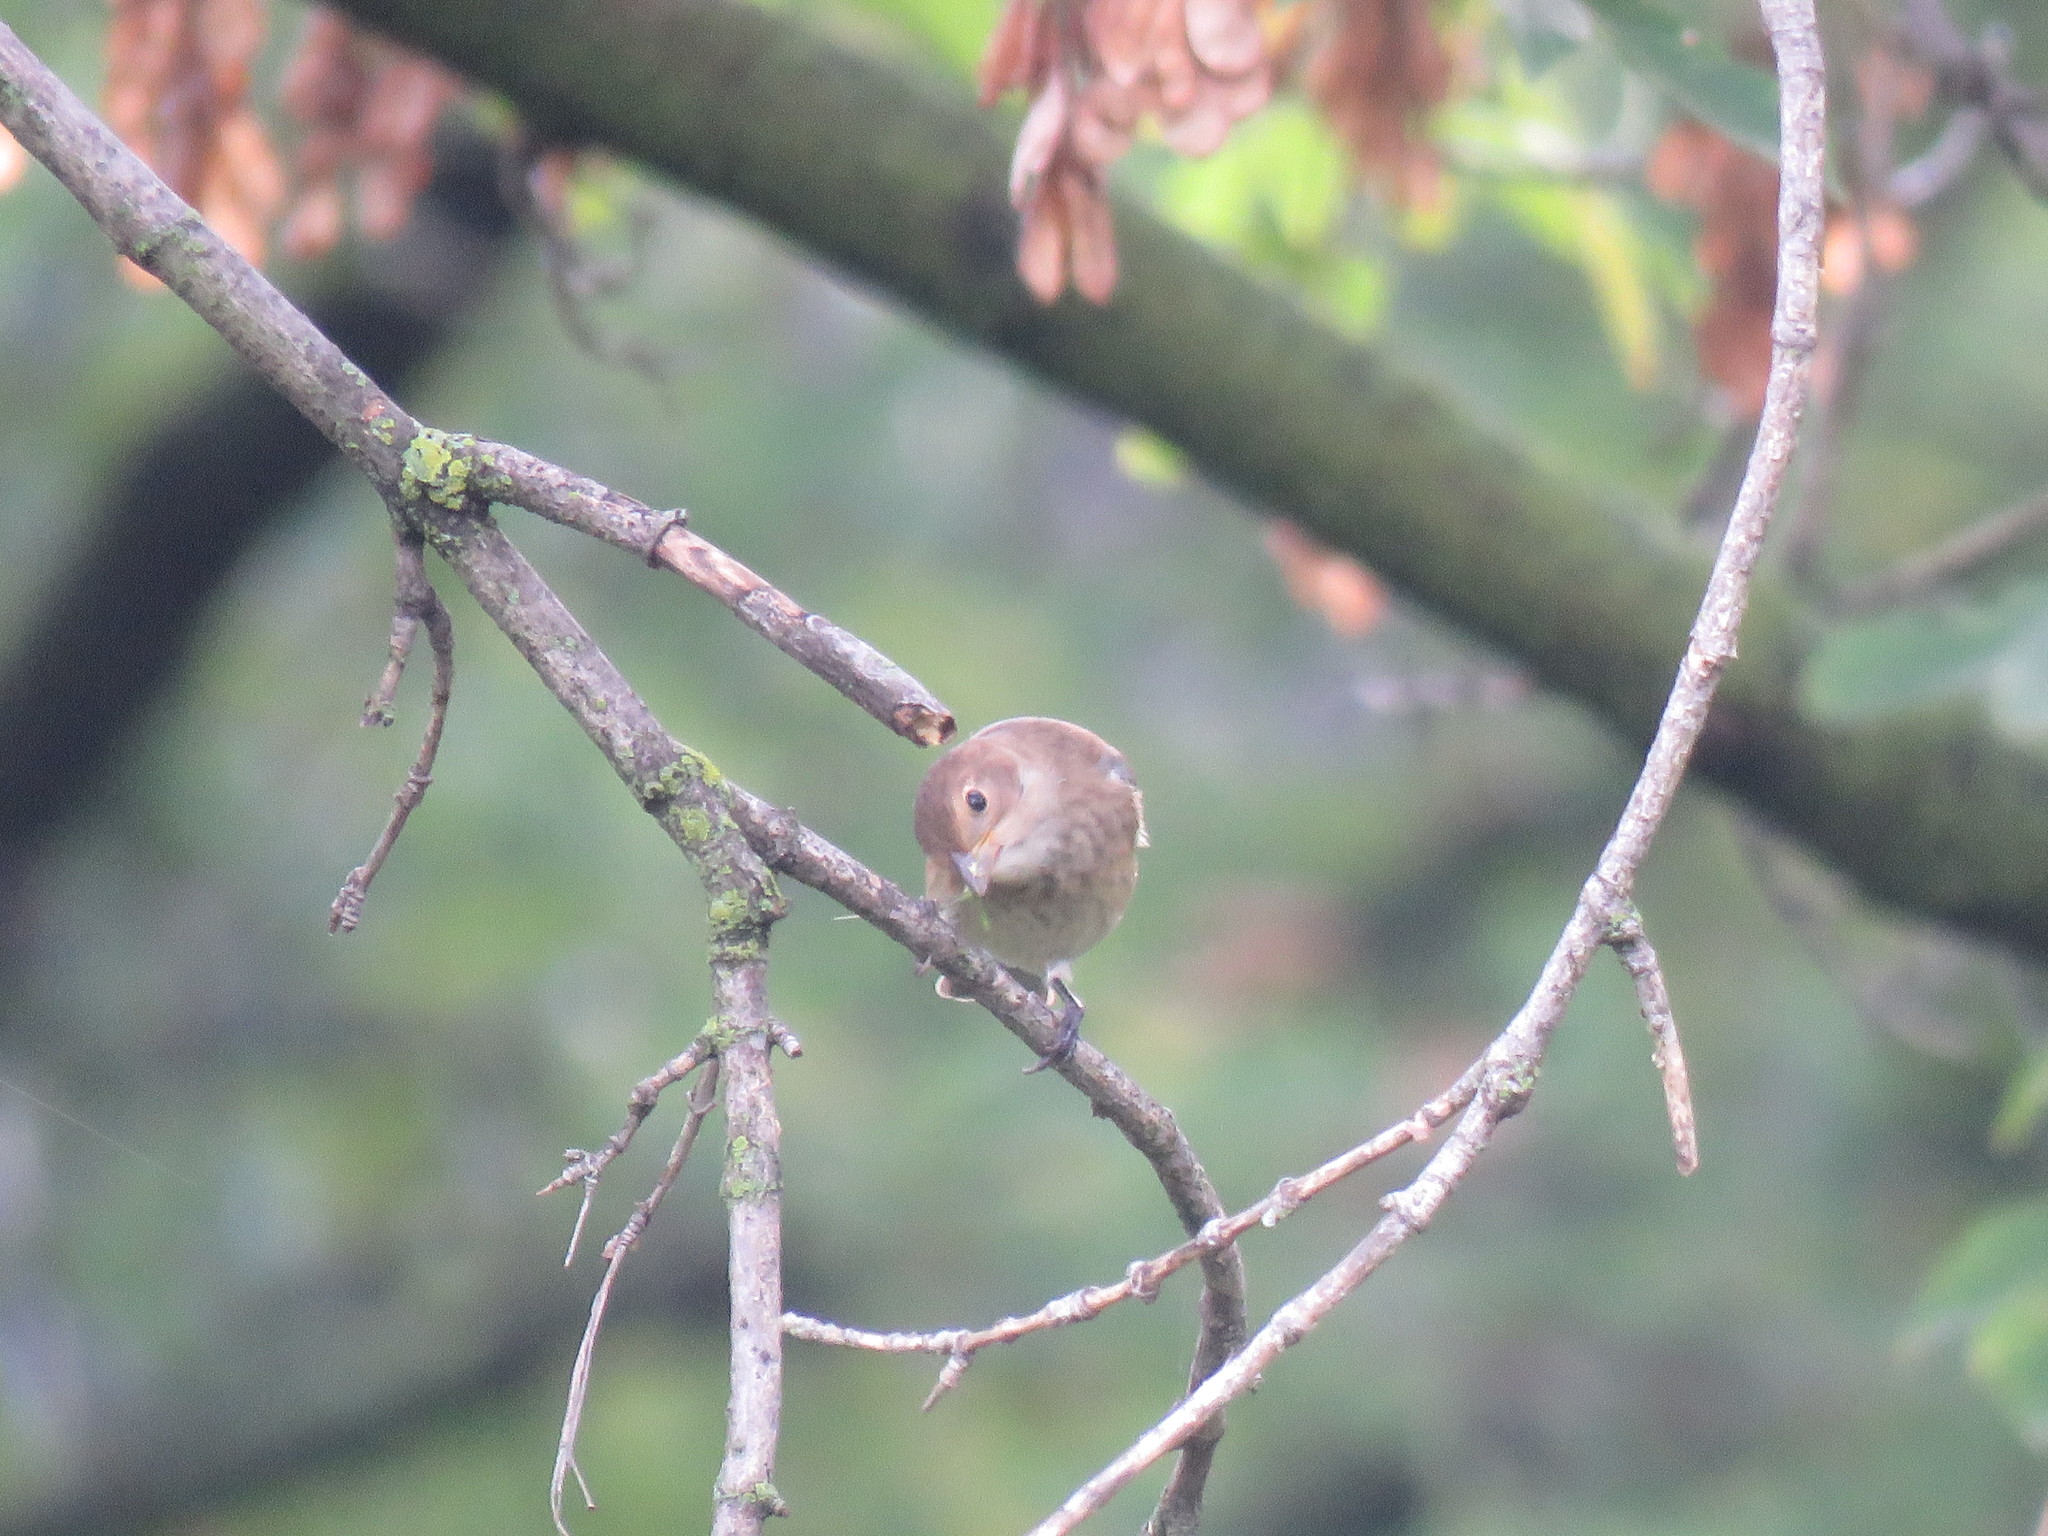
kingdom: Animalia
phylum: Chordata
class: Aves
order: Passeriformes
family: Cardinalidae
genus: Passerina
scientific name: Passerina cyanea
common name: Indigo bunting
